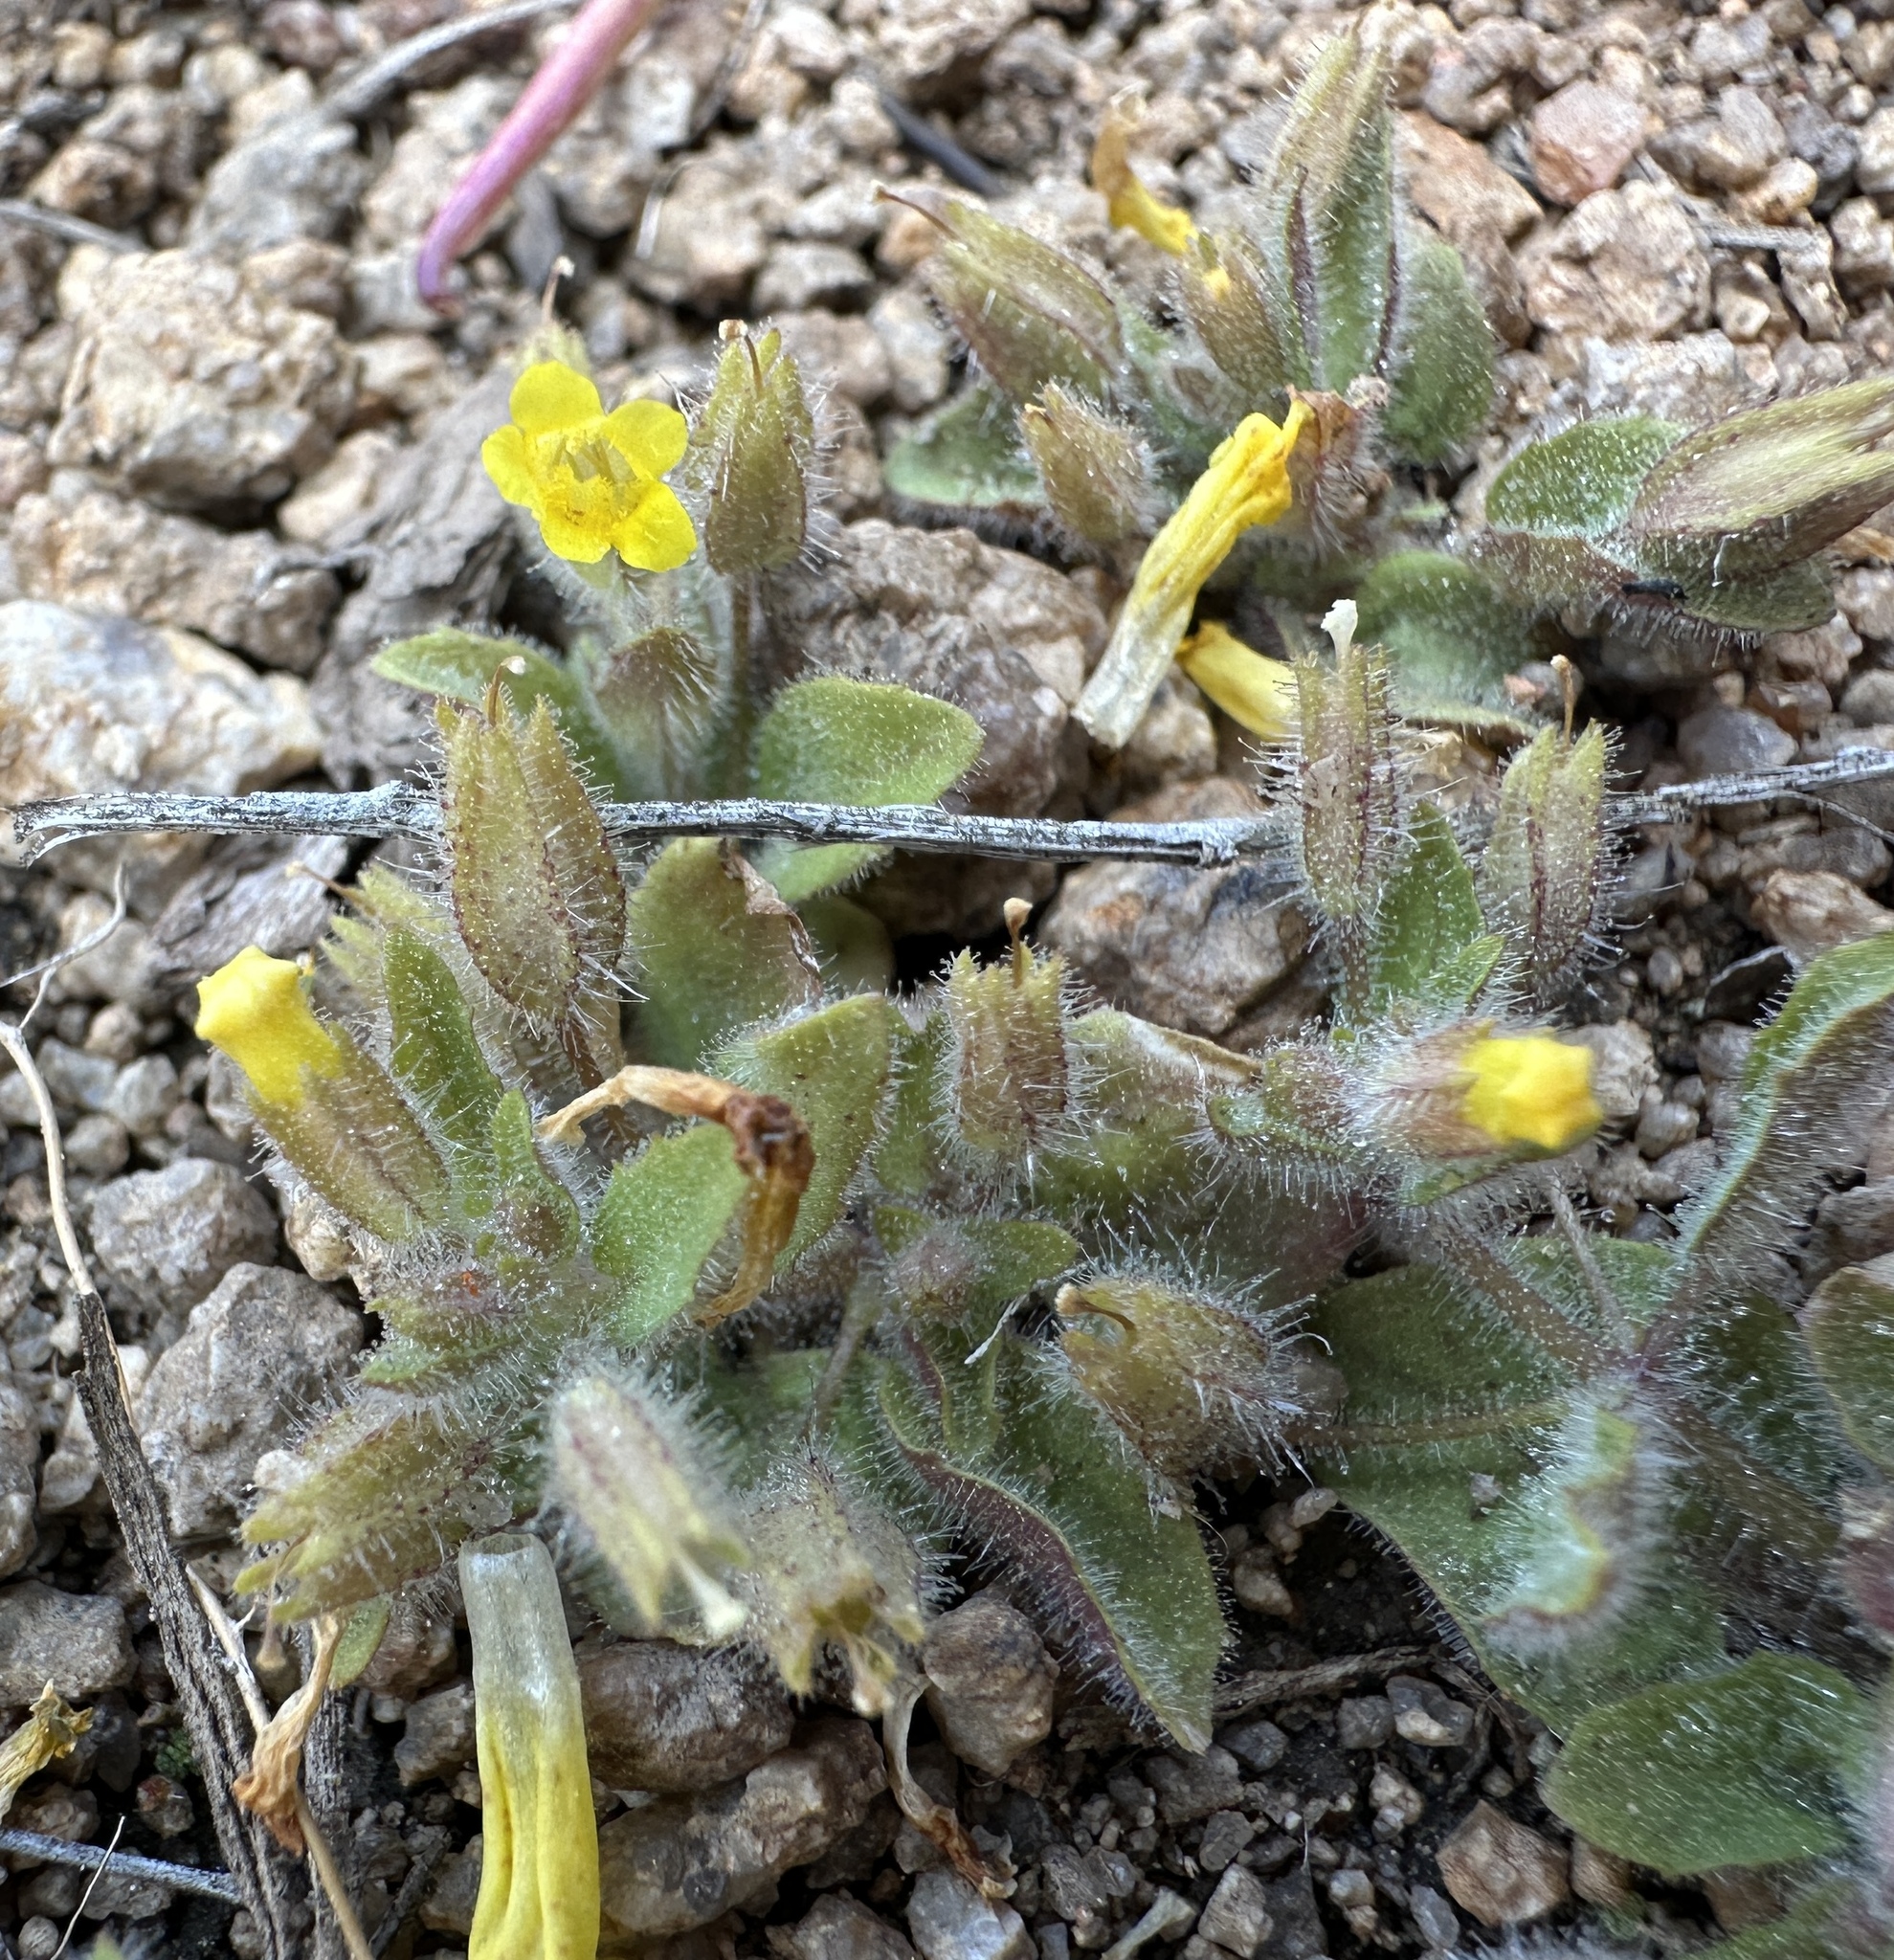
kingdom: Plantae
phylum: Tracheophyta
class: Magnoliopsida
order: Lamiales
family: Phrymaceae
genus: Erythranthe
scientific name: Erythranthe floribunda
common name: Floriferous monkeyflower
